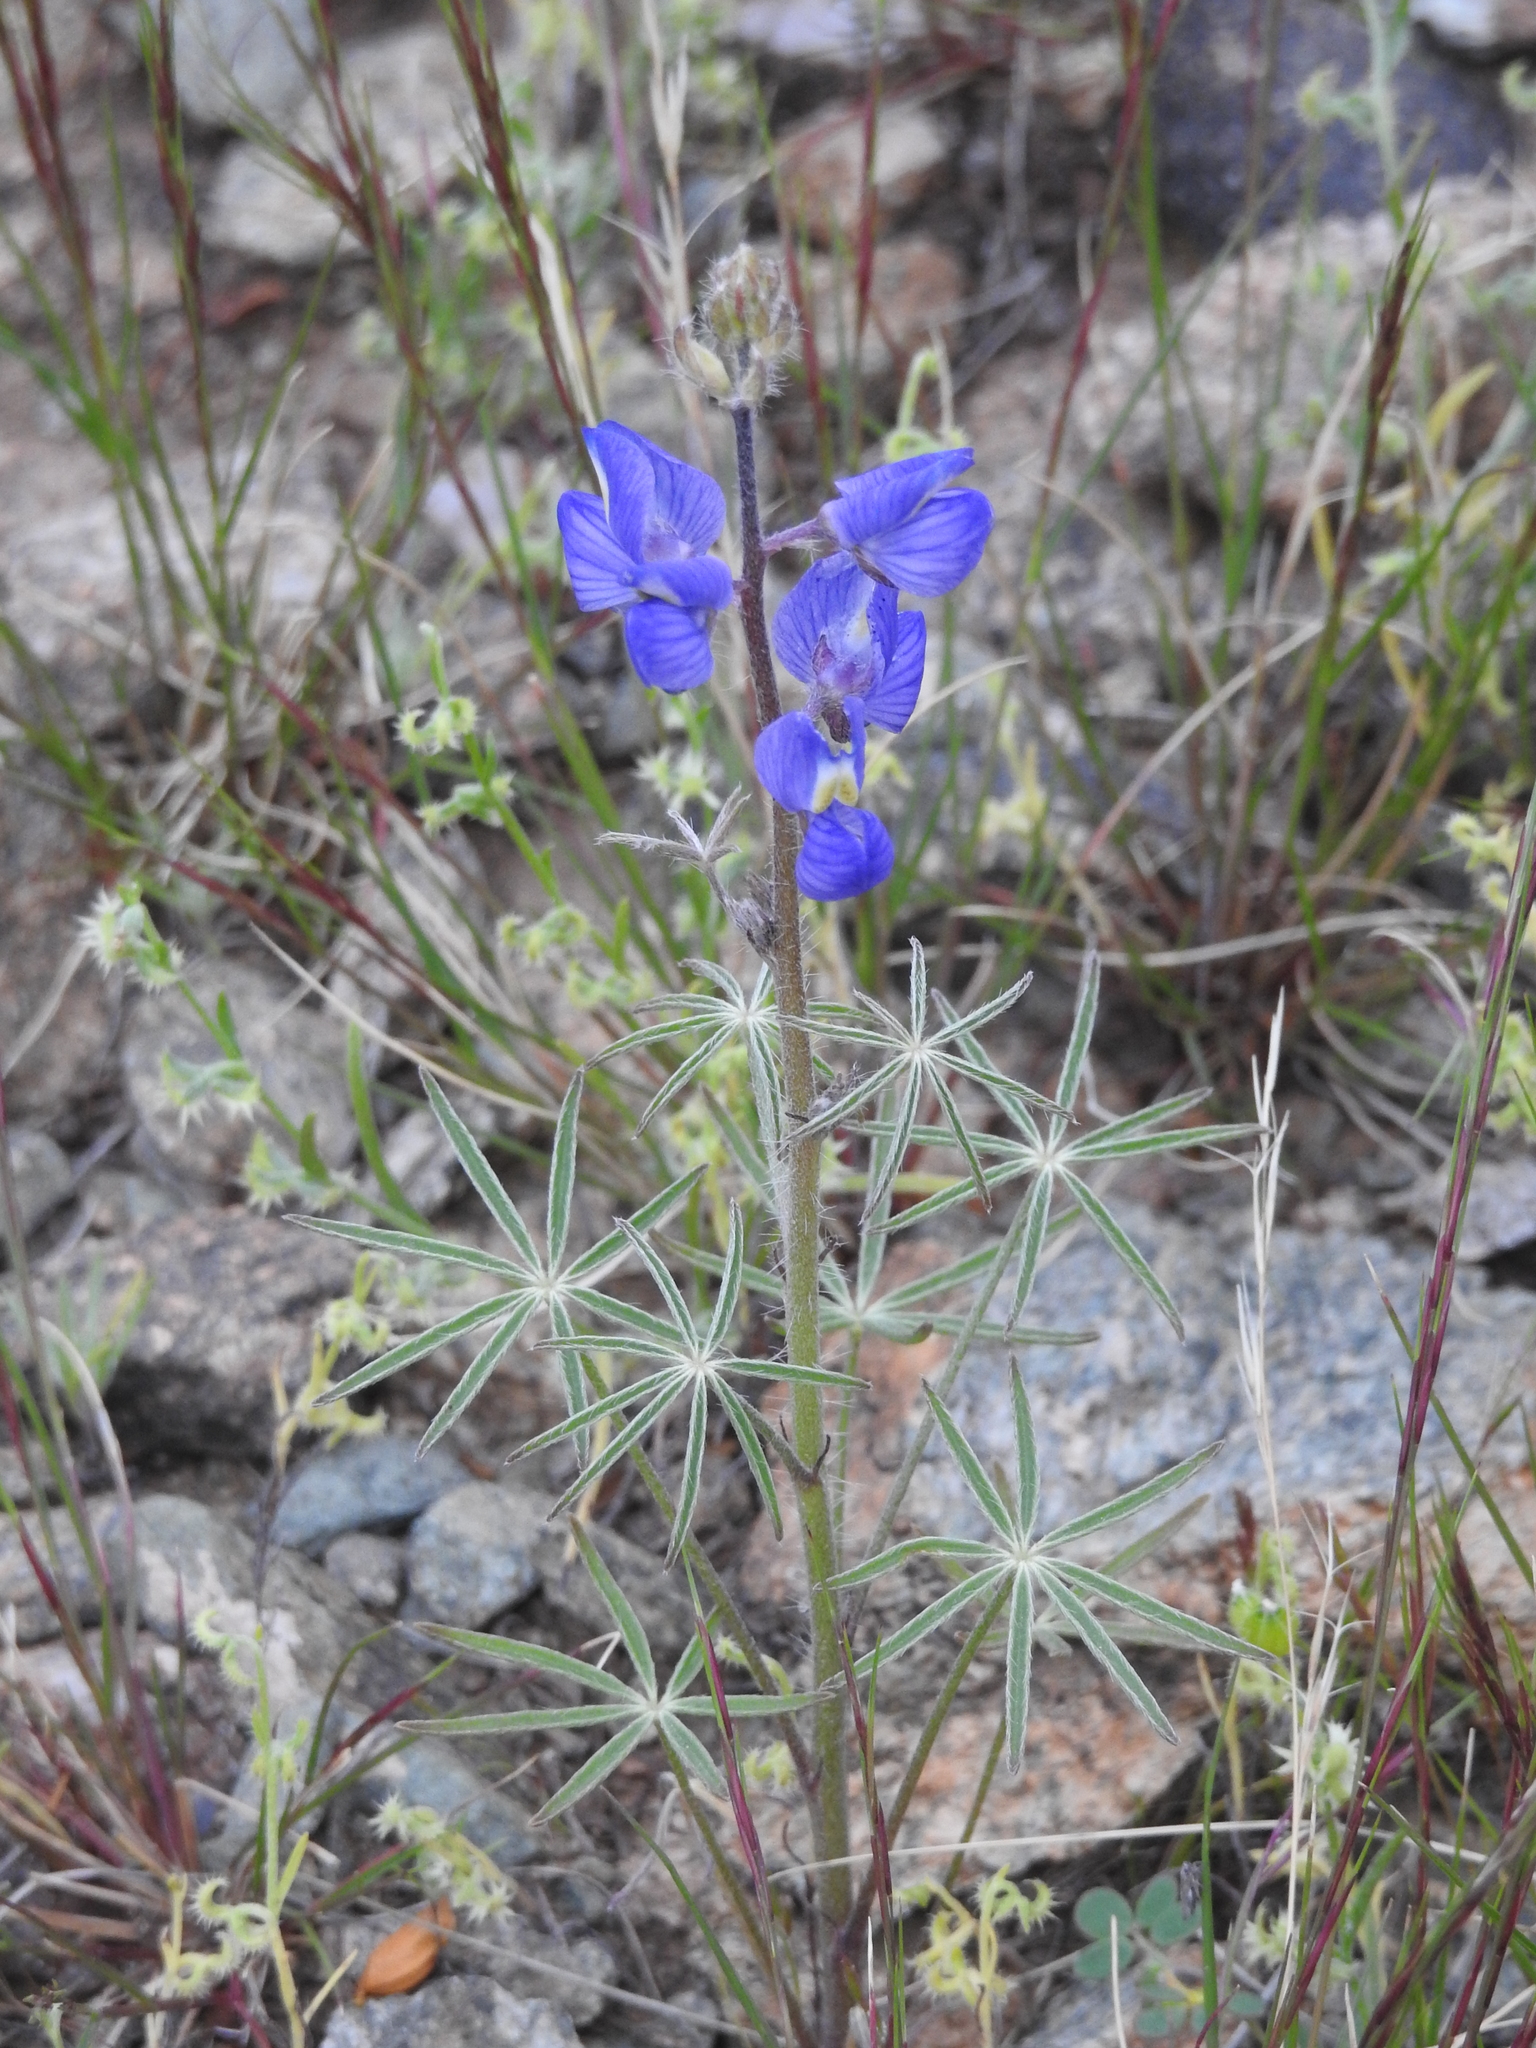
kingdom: Plantae
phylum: Tracheophyta
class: Magnoliopsida
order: Fabales
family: Fabaceae
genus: Lupinus
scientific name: Lupinus sparsiflorus
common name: Coulter's lupine
